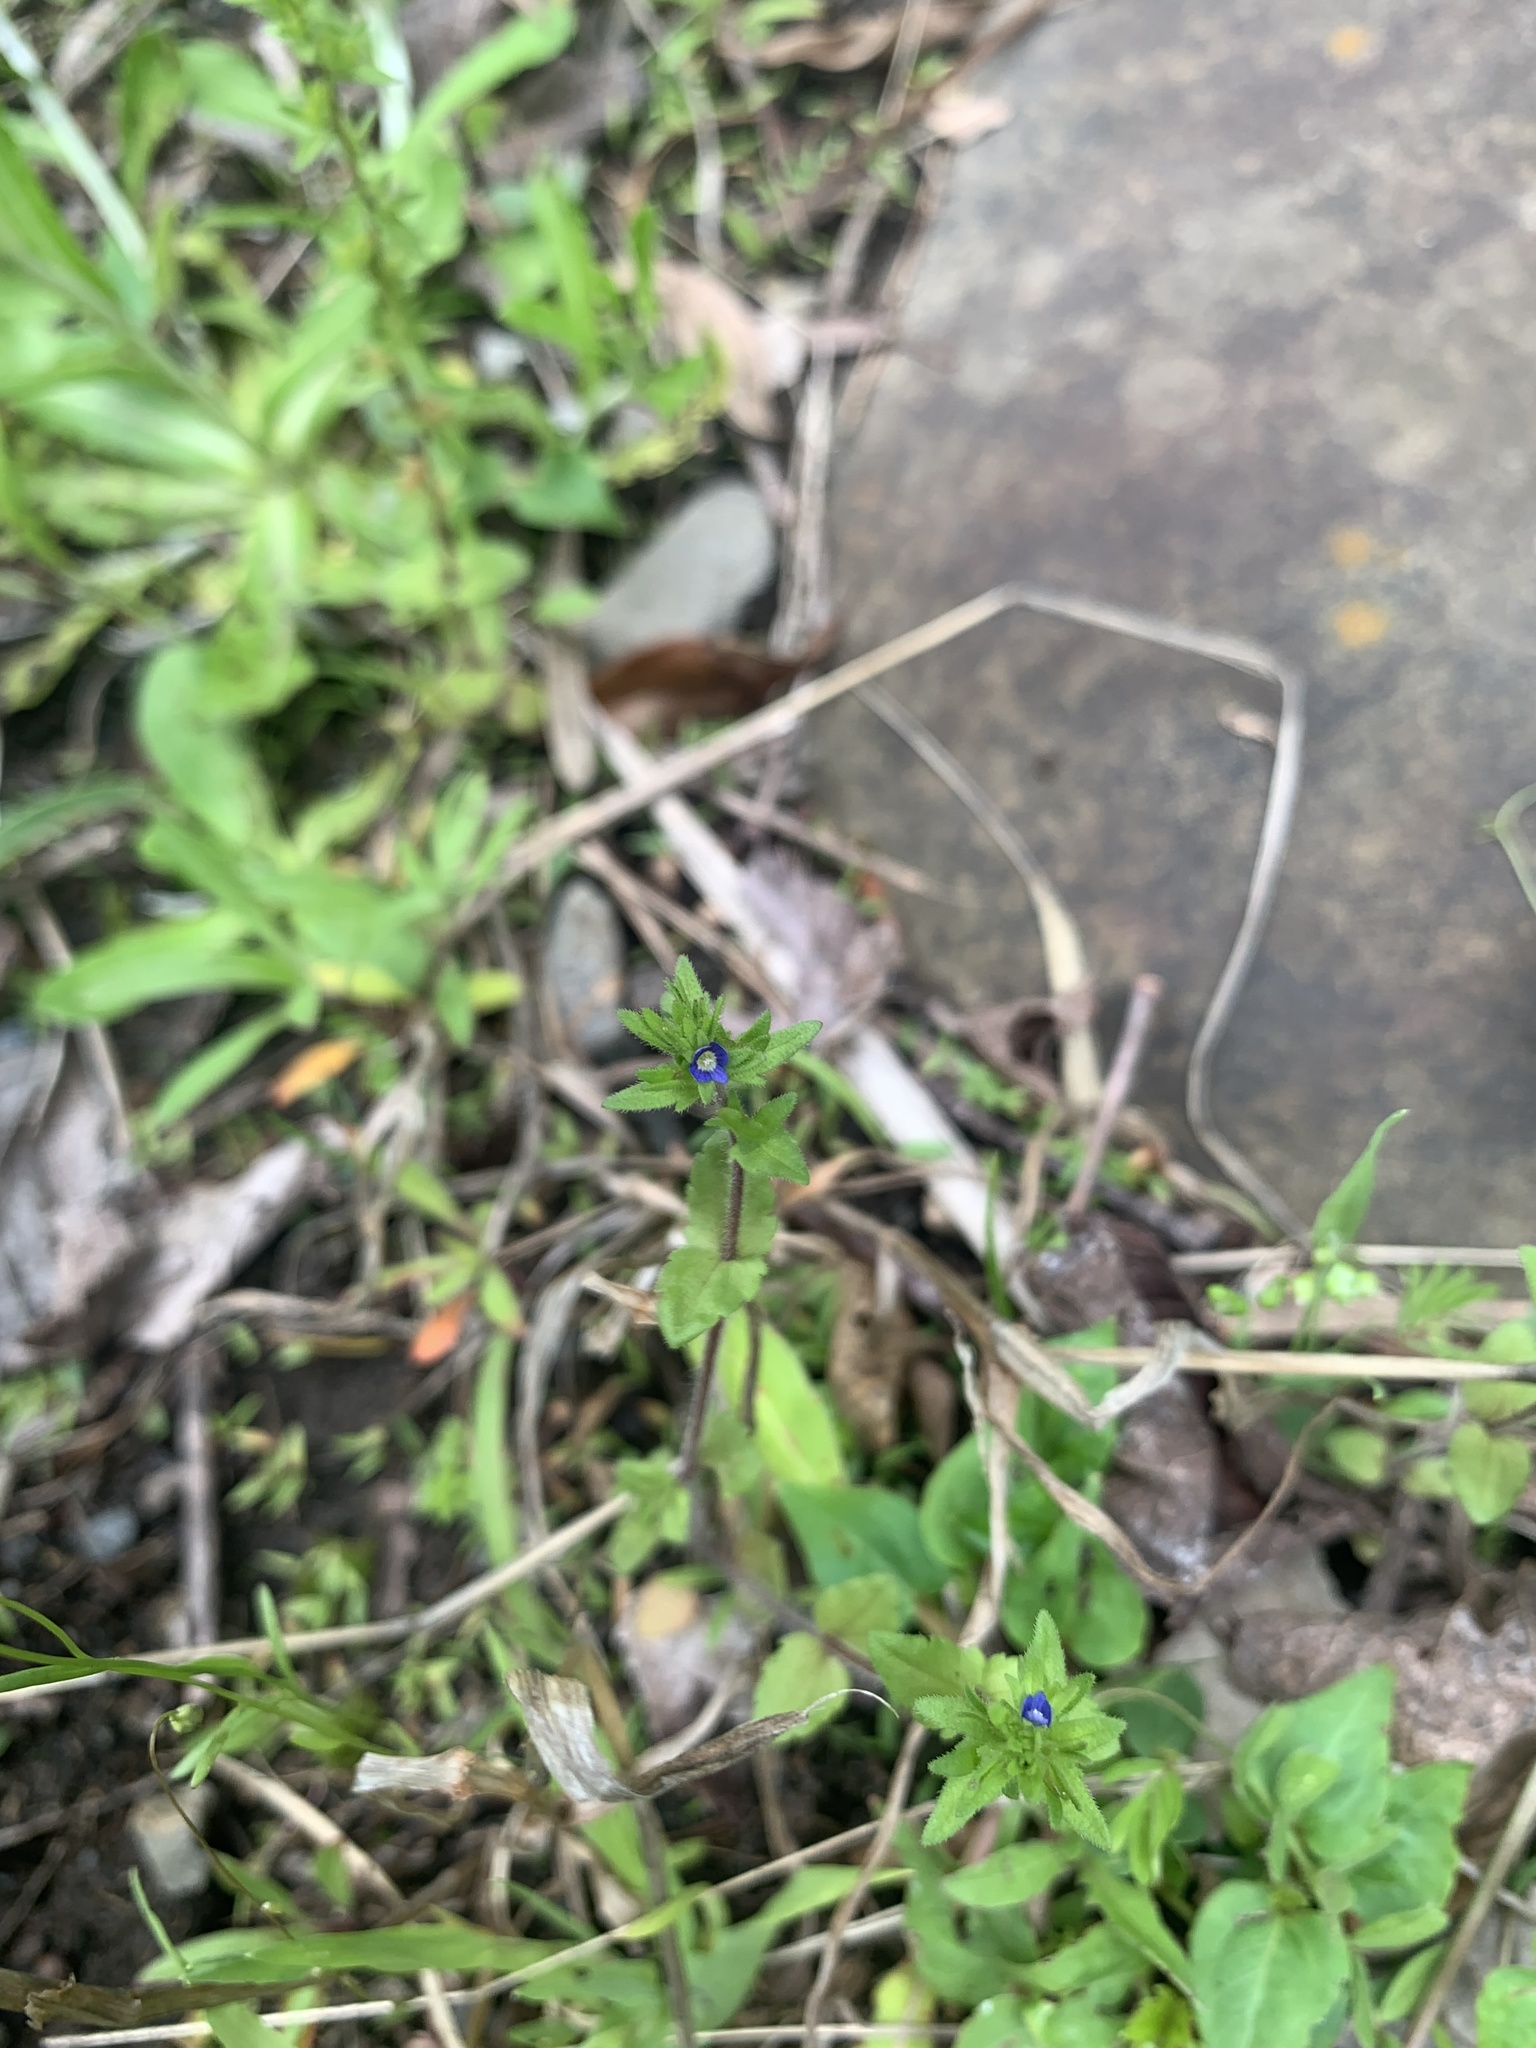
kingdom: Plantae
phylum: Tracheophyta
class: Magnoliopsida
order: Lamiales
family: Plantaginaceae
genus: Veronica
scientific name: Veronica arvensis
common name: Corn speedwell
